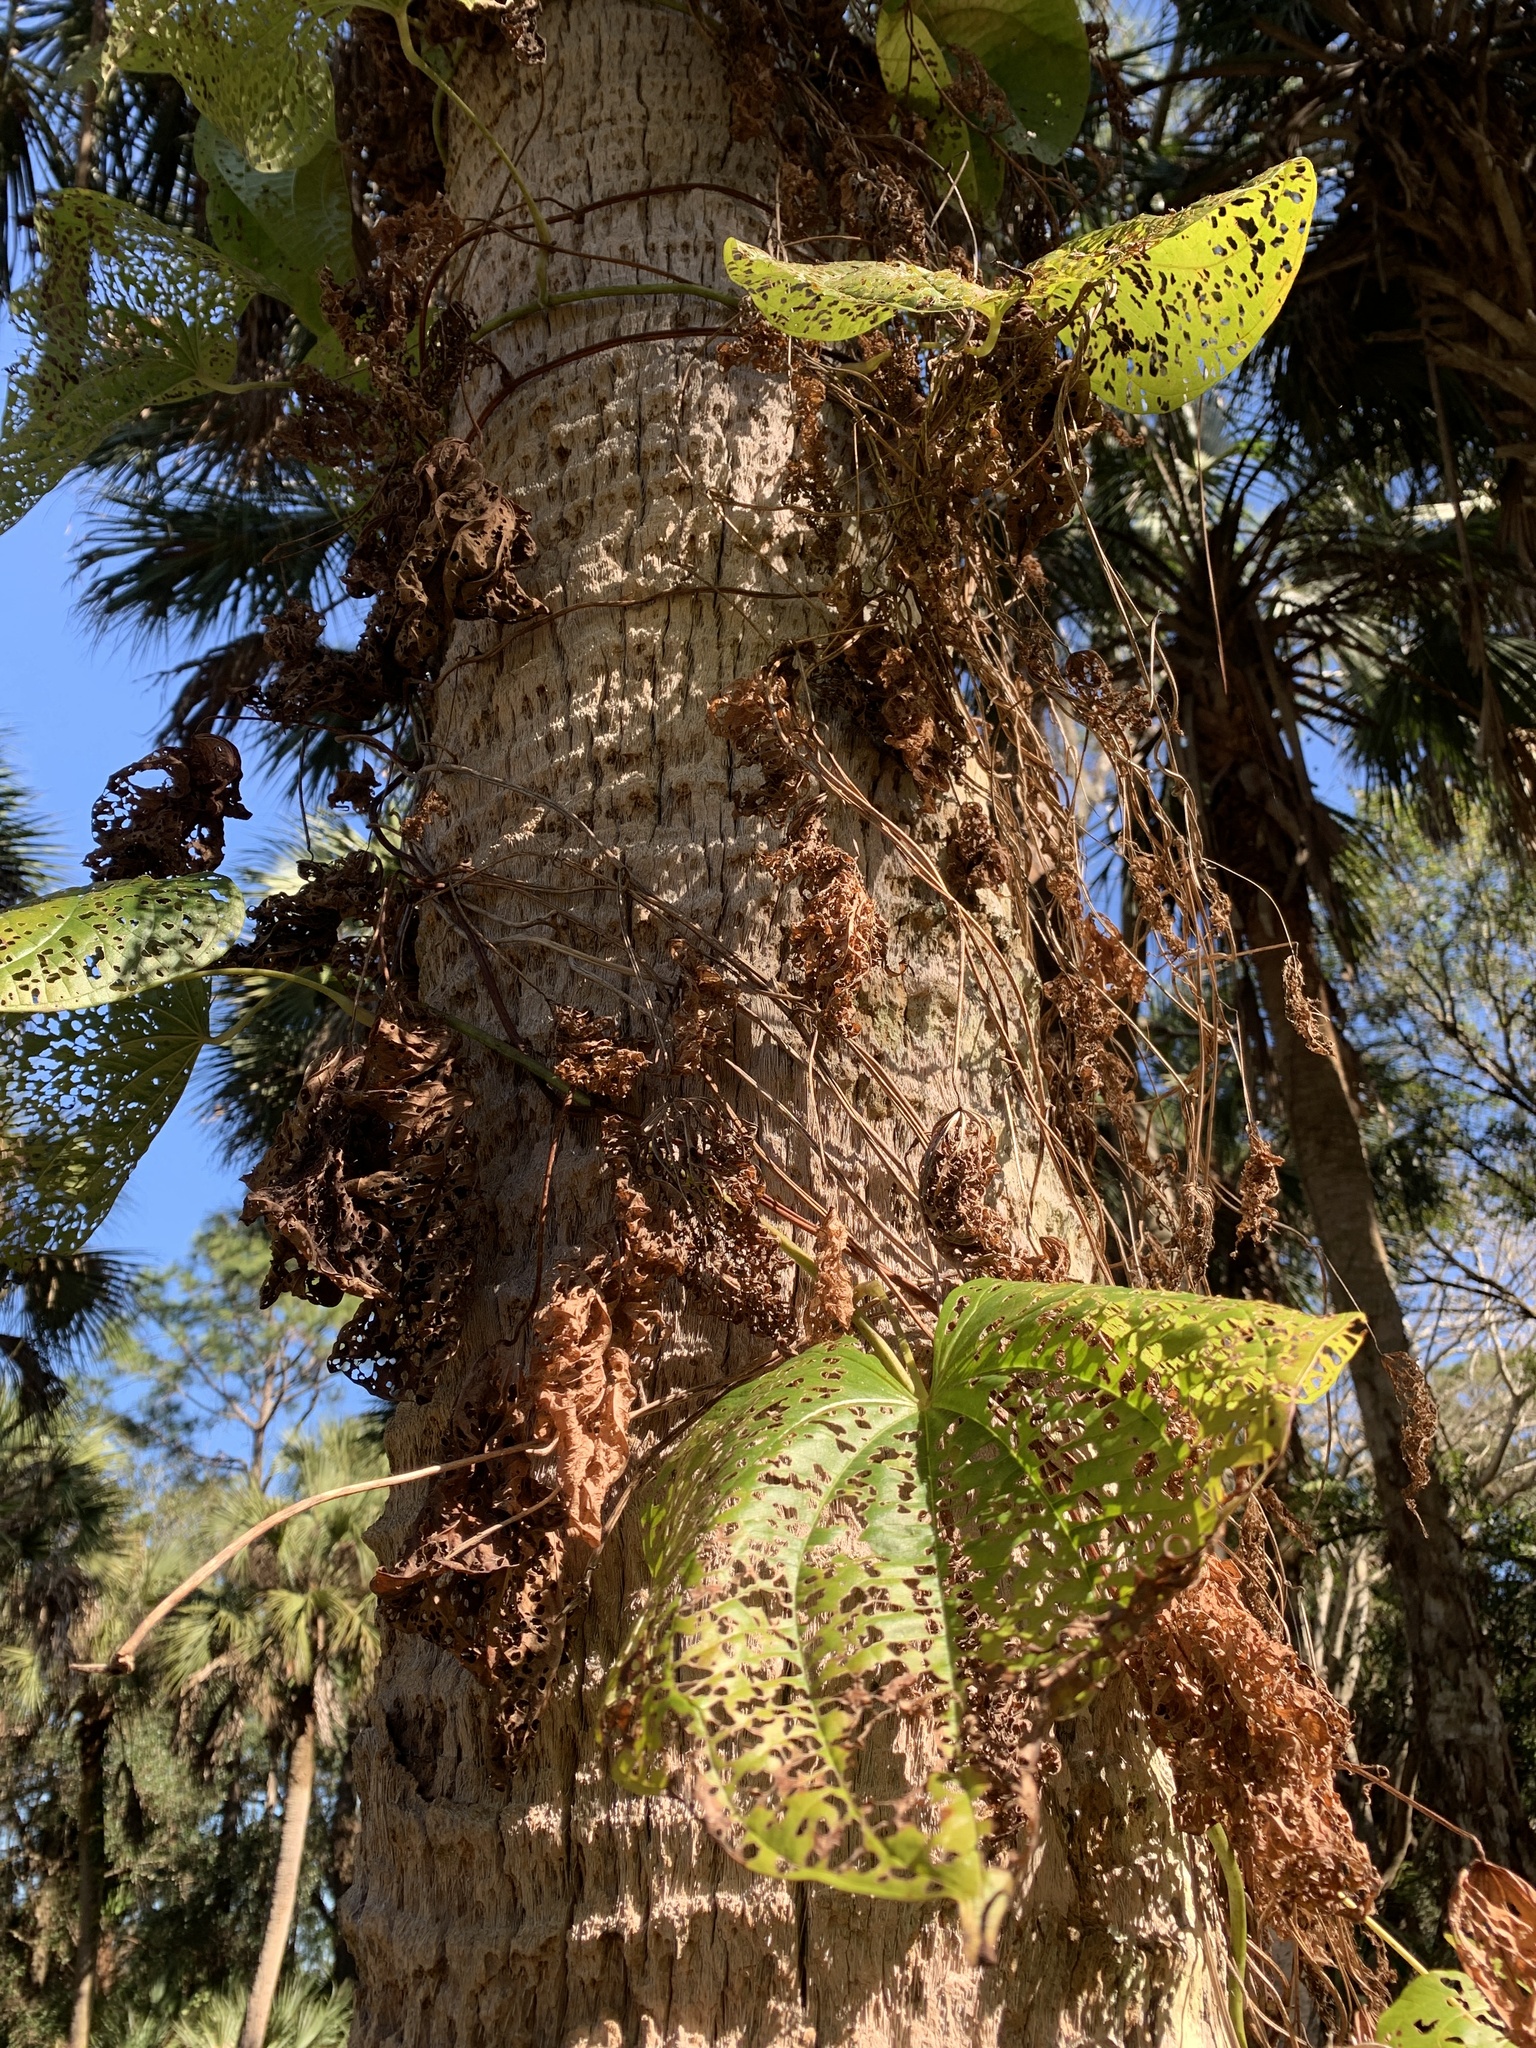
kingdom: Plantae
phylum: Tracheophyta
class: Liliopsida
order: Dioscoreales
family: Dioscoreaceae
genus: Dioscorea
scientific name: Dioscorea bulbifera
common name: Air yam
